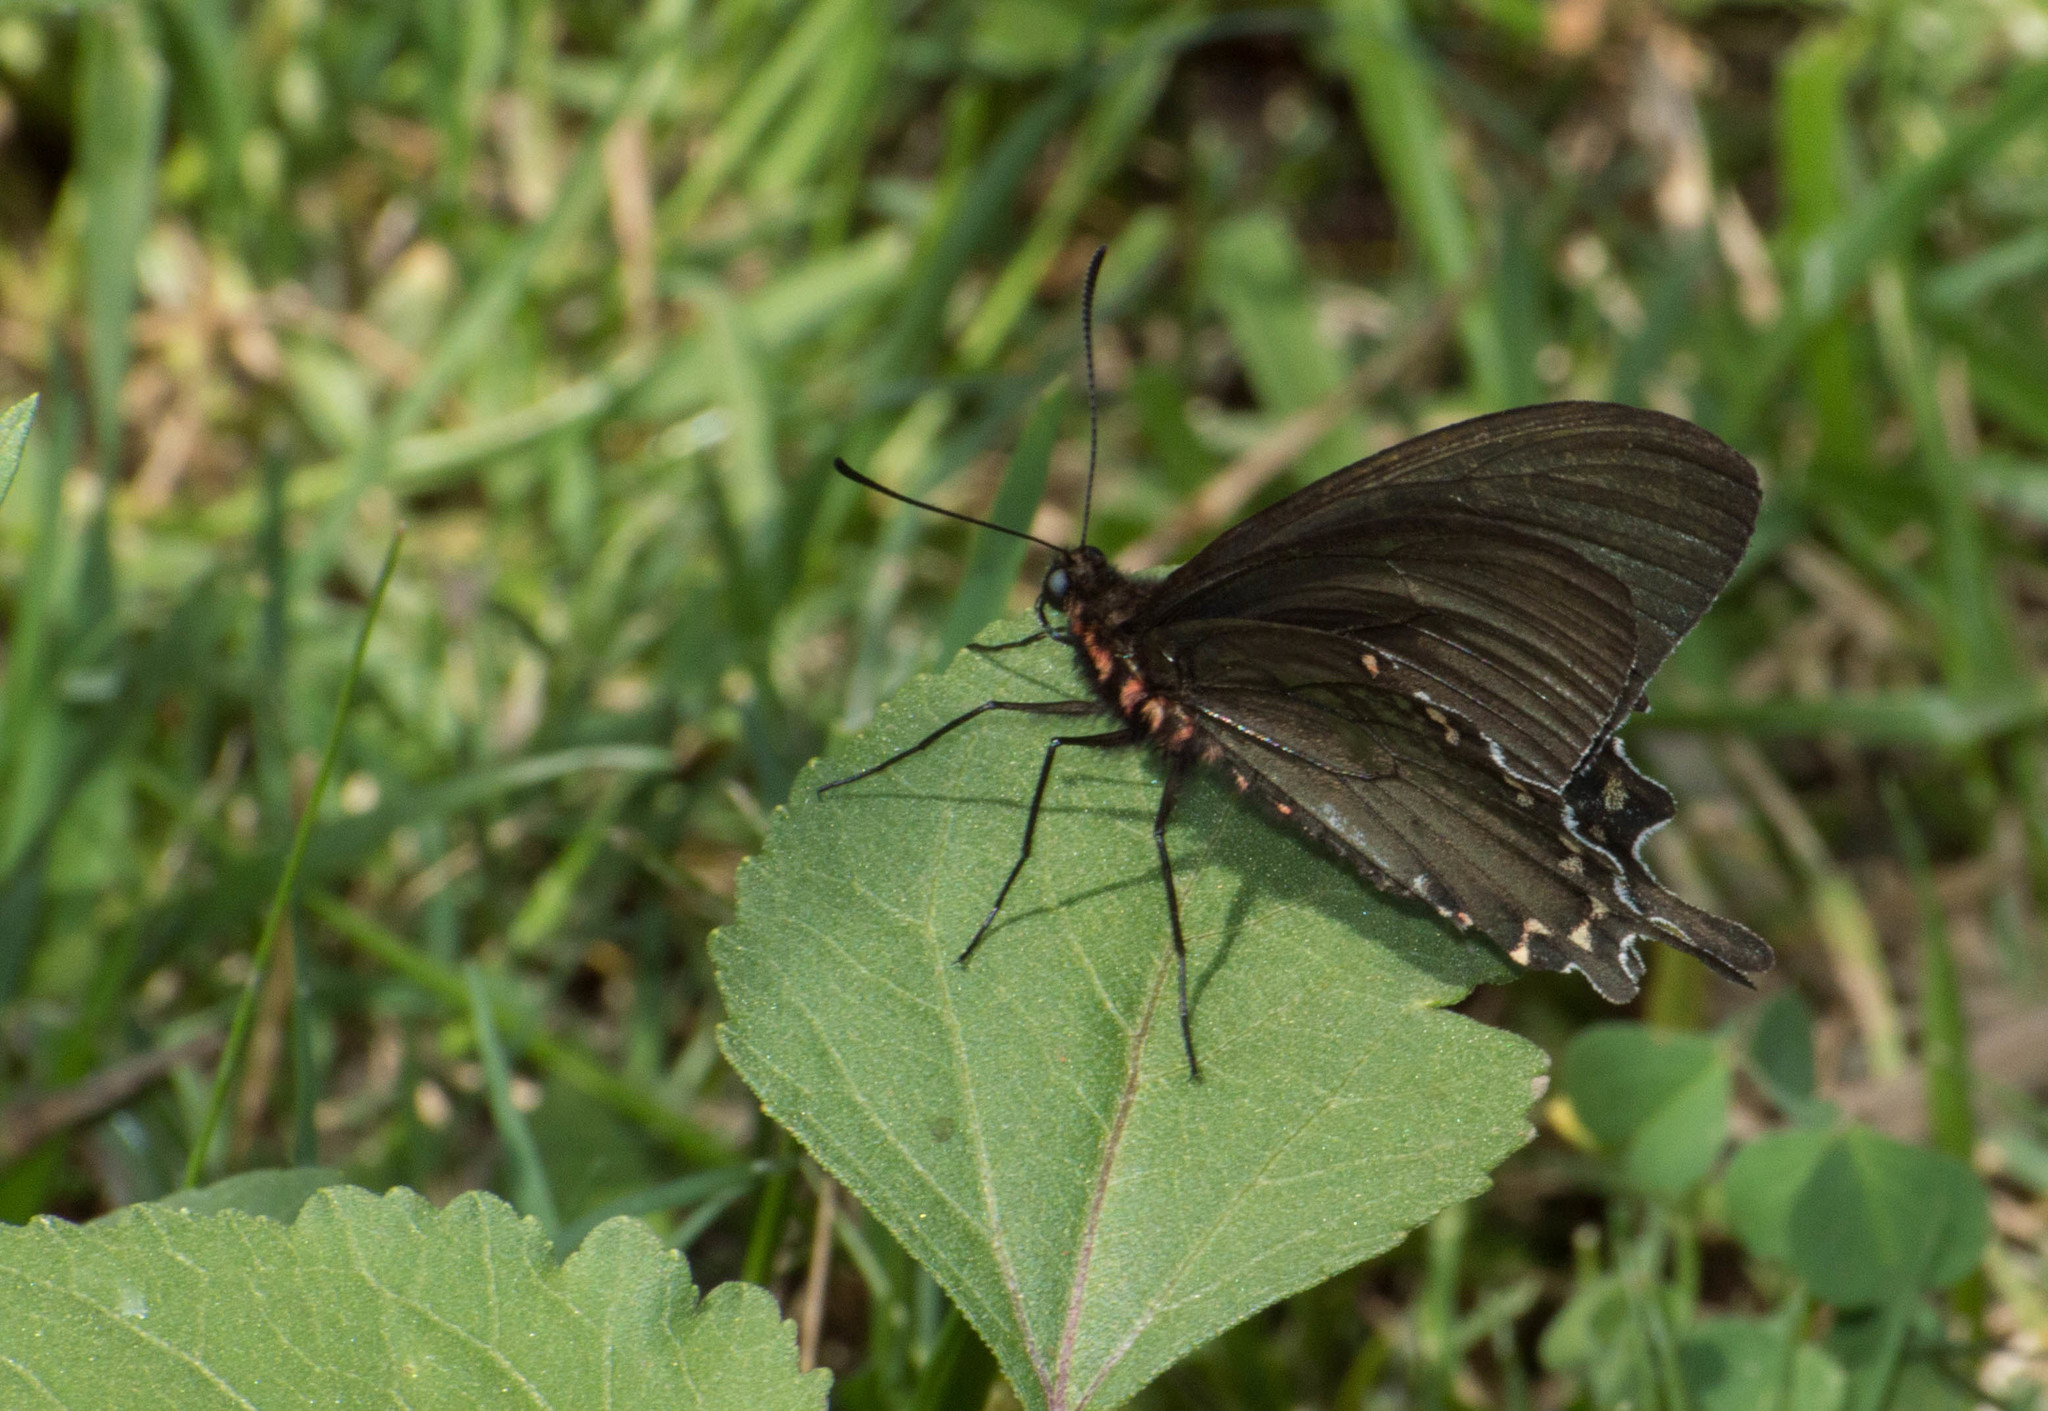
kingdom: Animalia
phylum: Arthropoda
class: Insecta
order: Lepidoptera
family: Papilionidae
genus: Parides
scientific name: Parides bunichus
